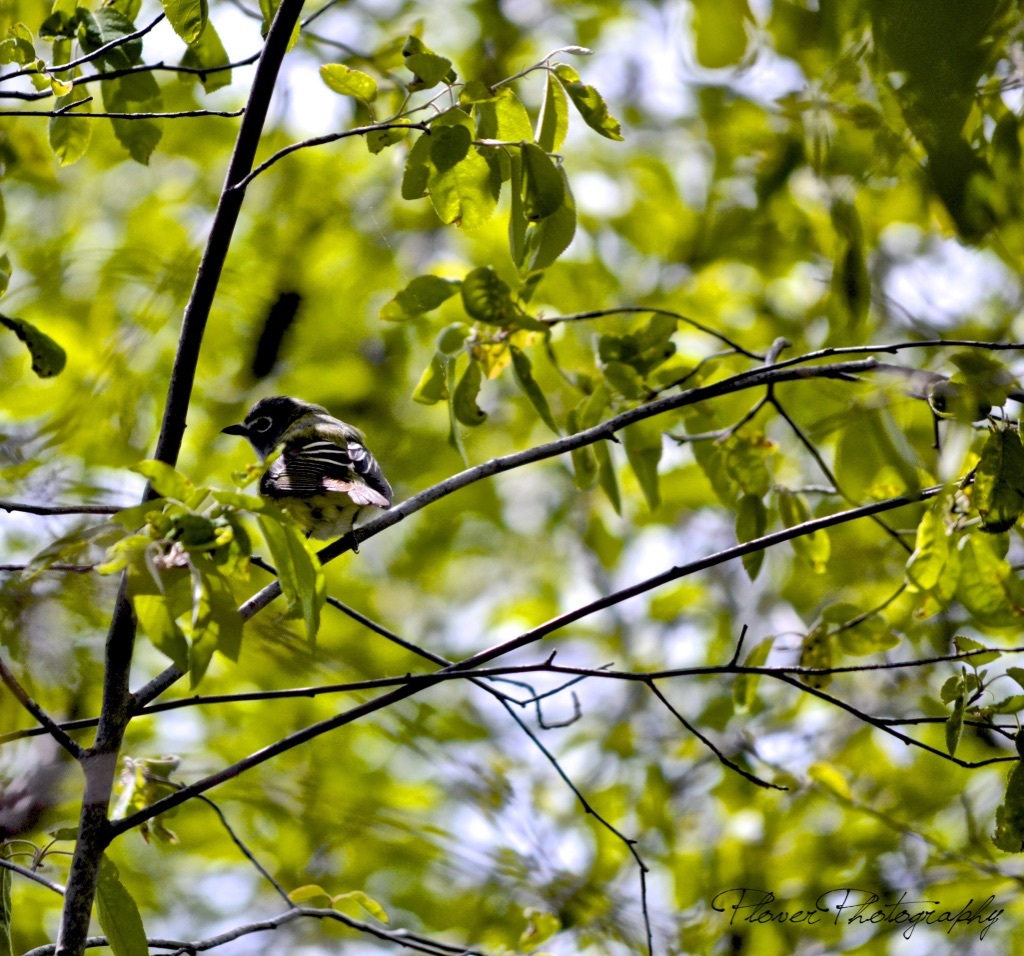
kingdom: Animalia
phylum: Chordata
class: Aves
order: Passeriformes
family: Vireonidae
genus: Vireo
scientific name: Vireo solitarius
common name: Blue-headed vireo
